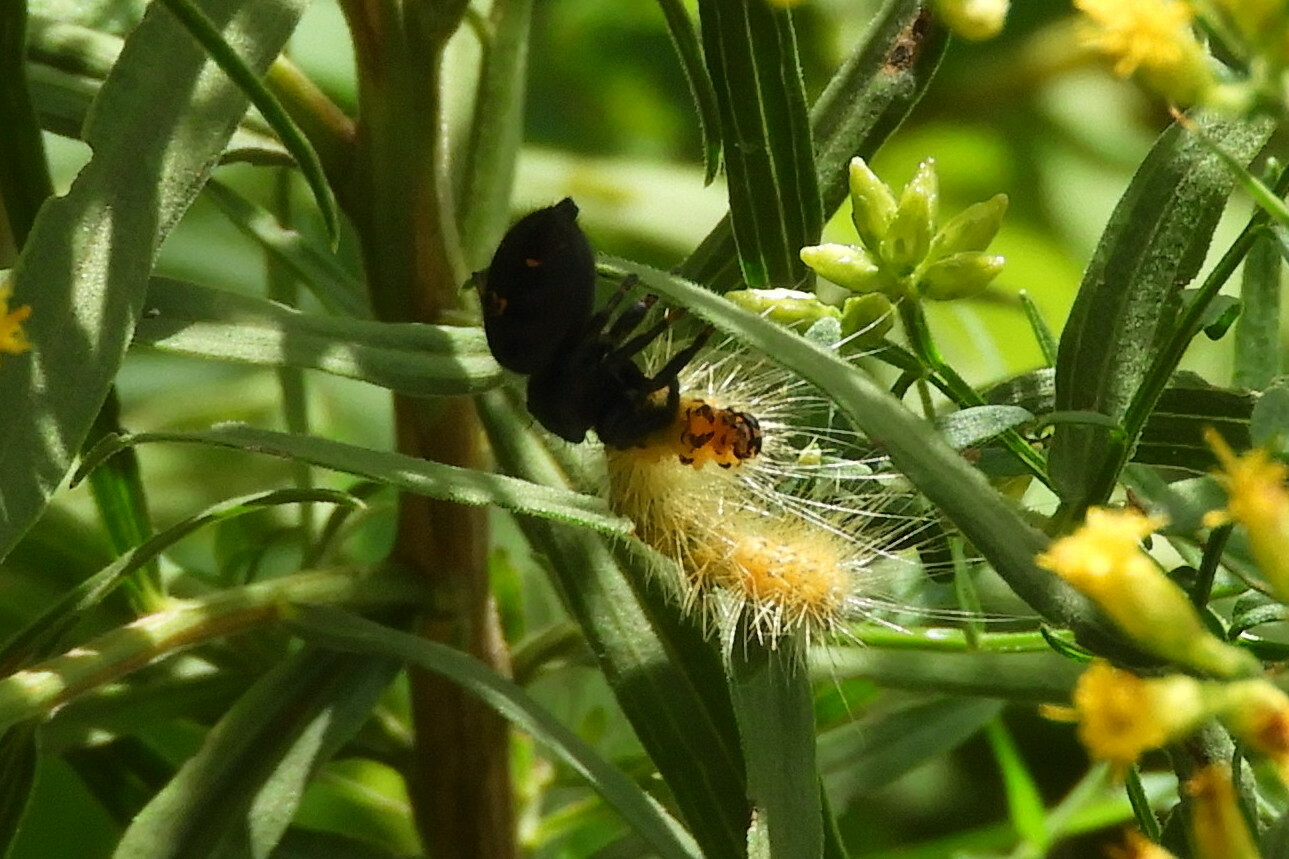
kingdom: Animalia
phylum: Arthropoda
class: Arachnida
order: Araneae
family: Salticidae
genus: Phidippus
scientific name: Phidippus audax
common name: Bold jumper
